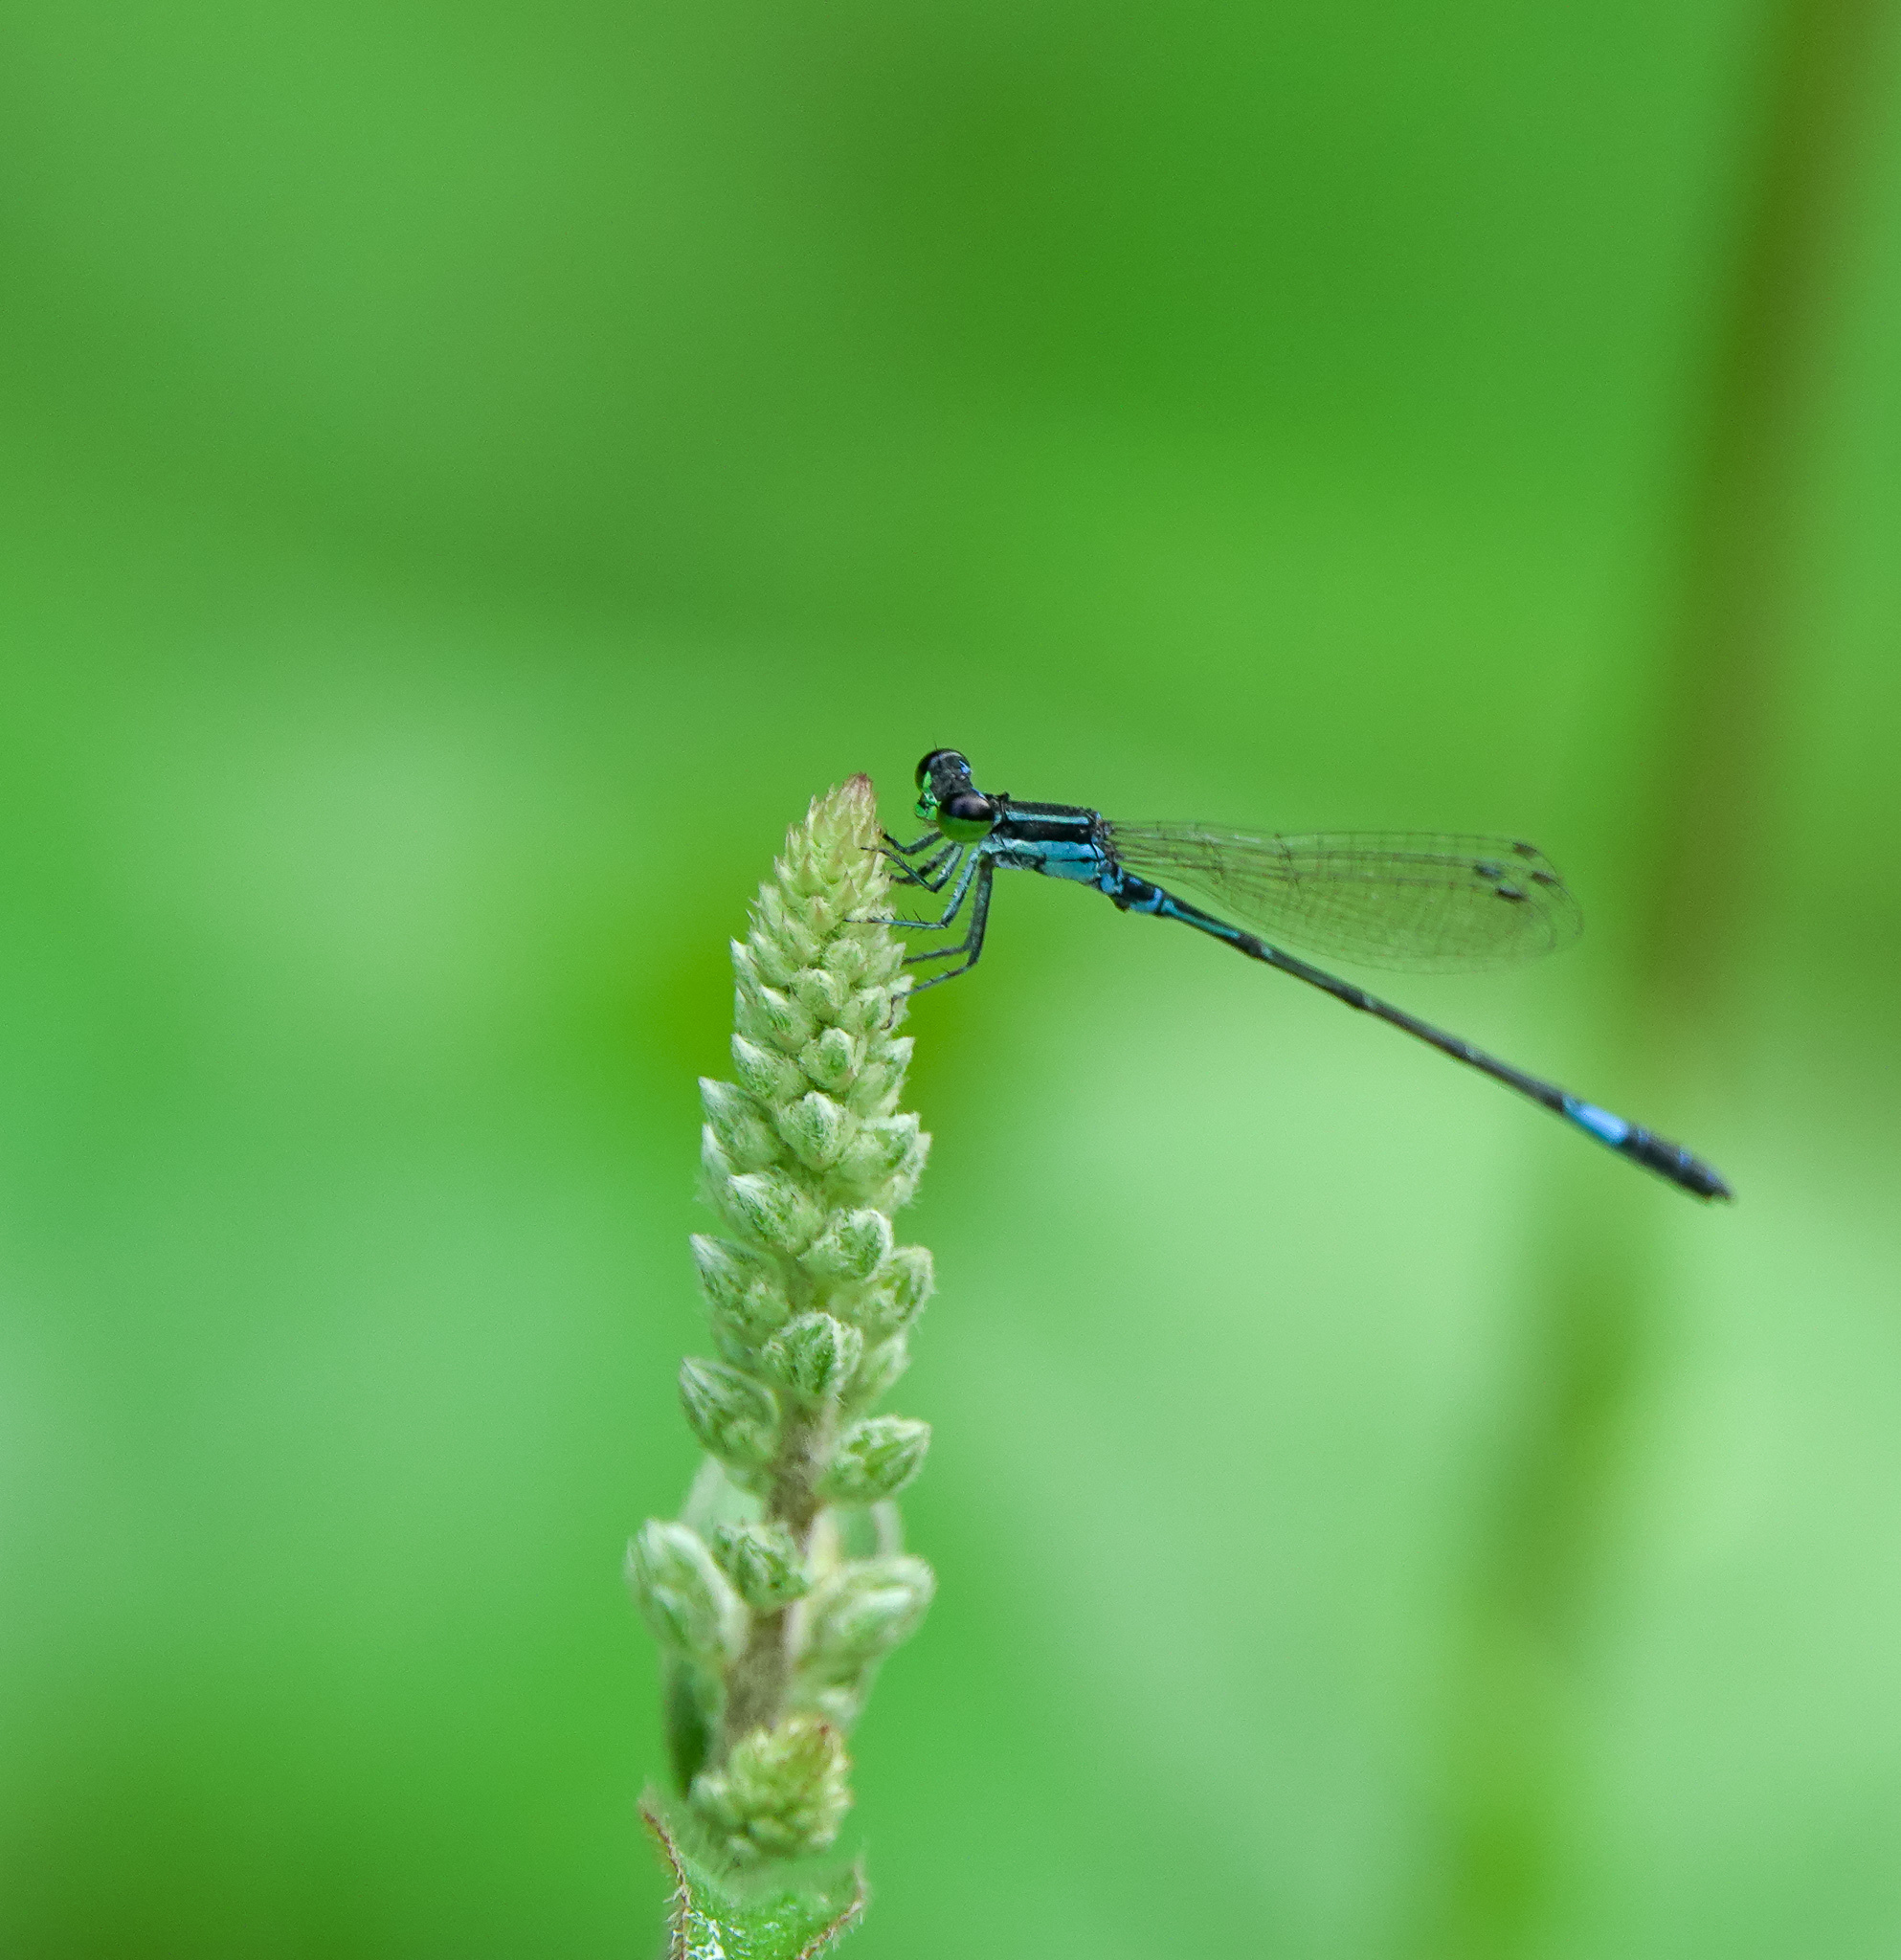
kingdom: Animalia
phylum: Arthropoda
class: Insecta
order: Odonata
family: Coenagrionidae
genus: Agriocnemis
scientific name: Agriocnemis clauseni
